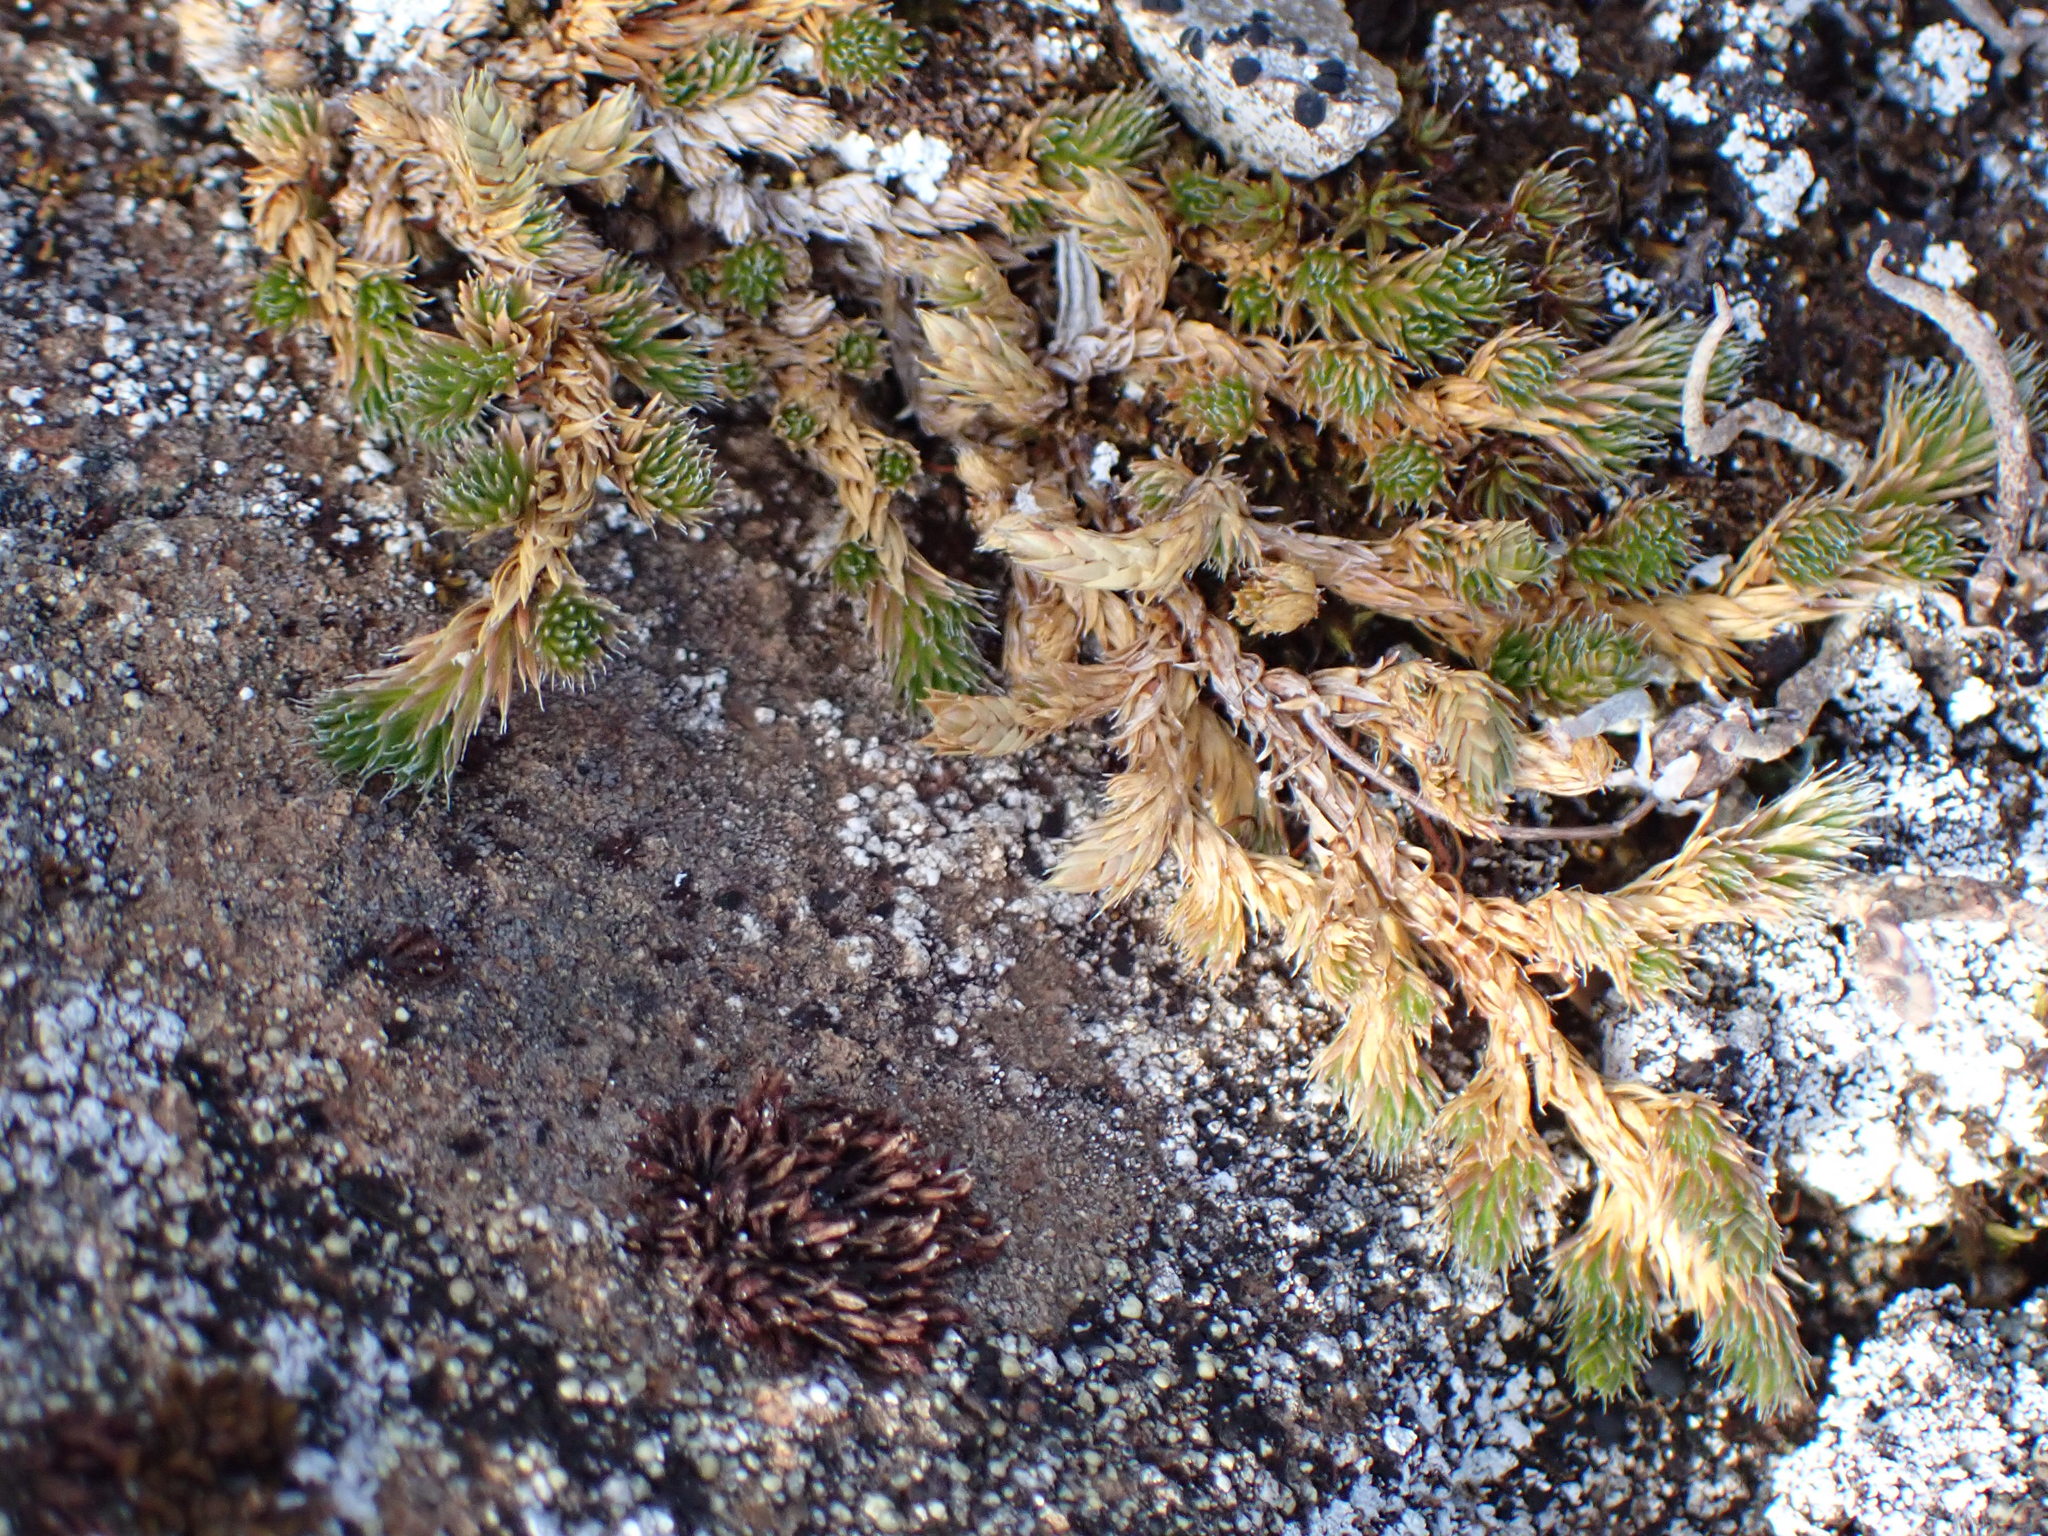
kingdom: Plantae
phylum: Tracheophyta
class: Lycopodiopsida
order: Selaginellales
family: Selaginellaceae
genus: Selaginella
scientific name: Selaginella densa
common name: Mountain spike-moss
